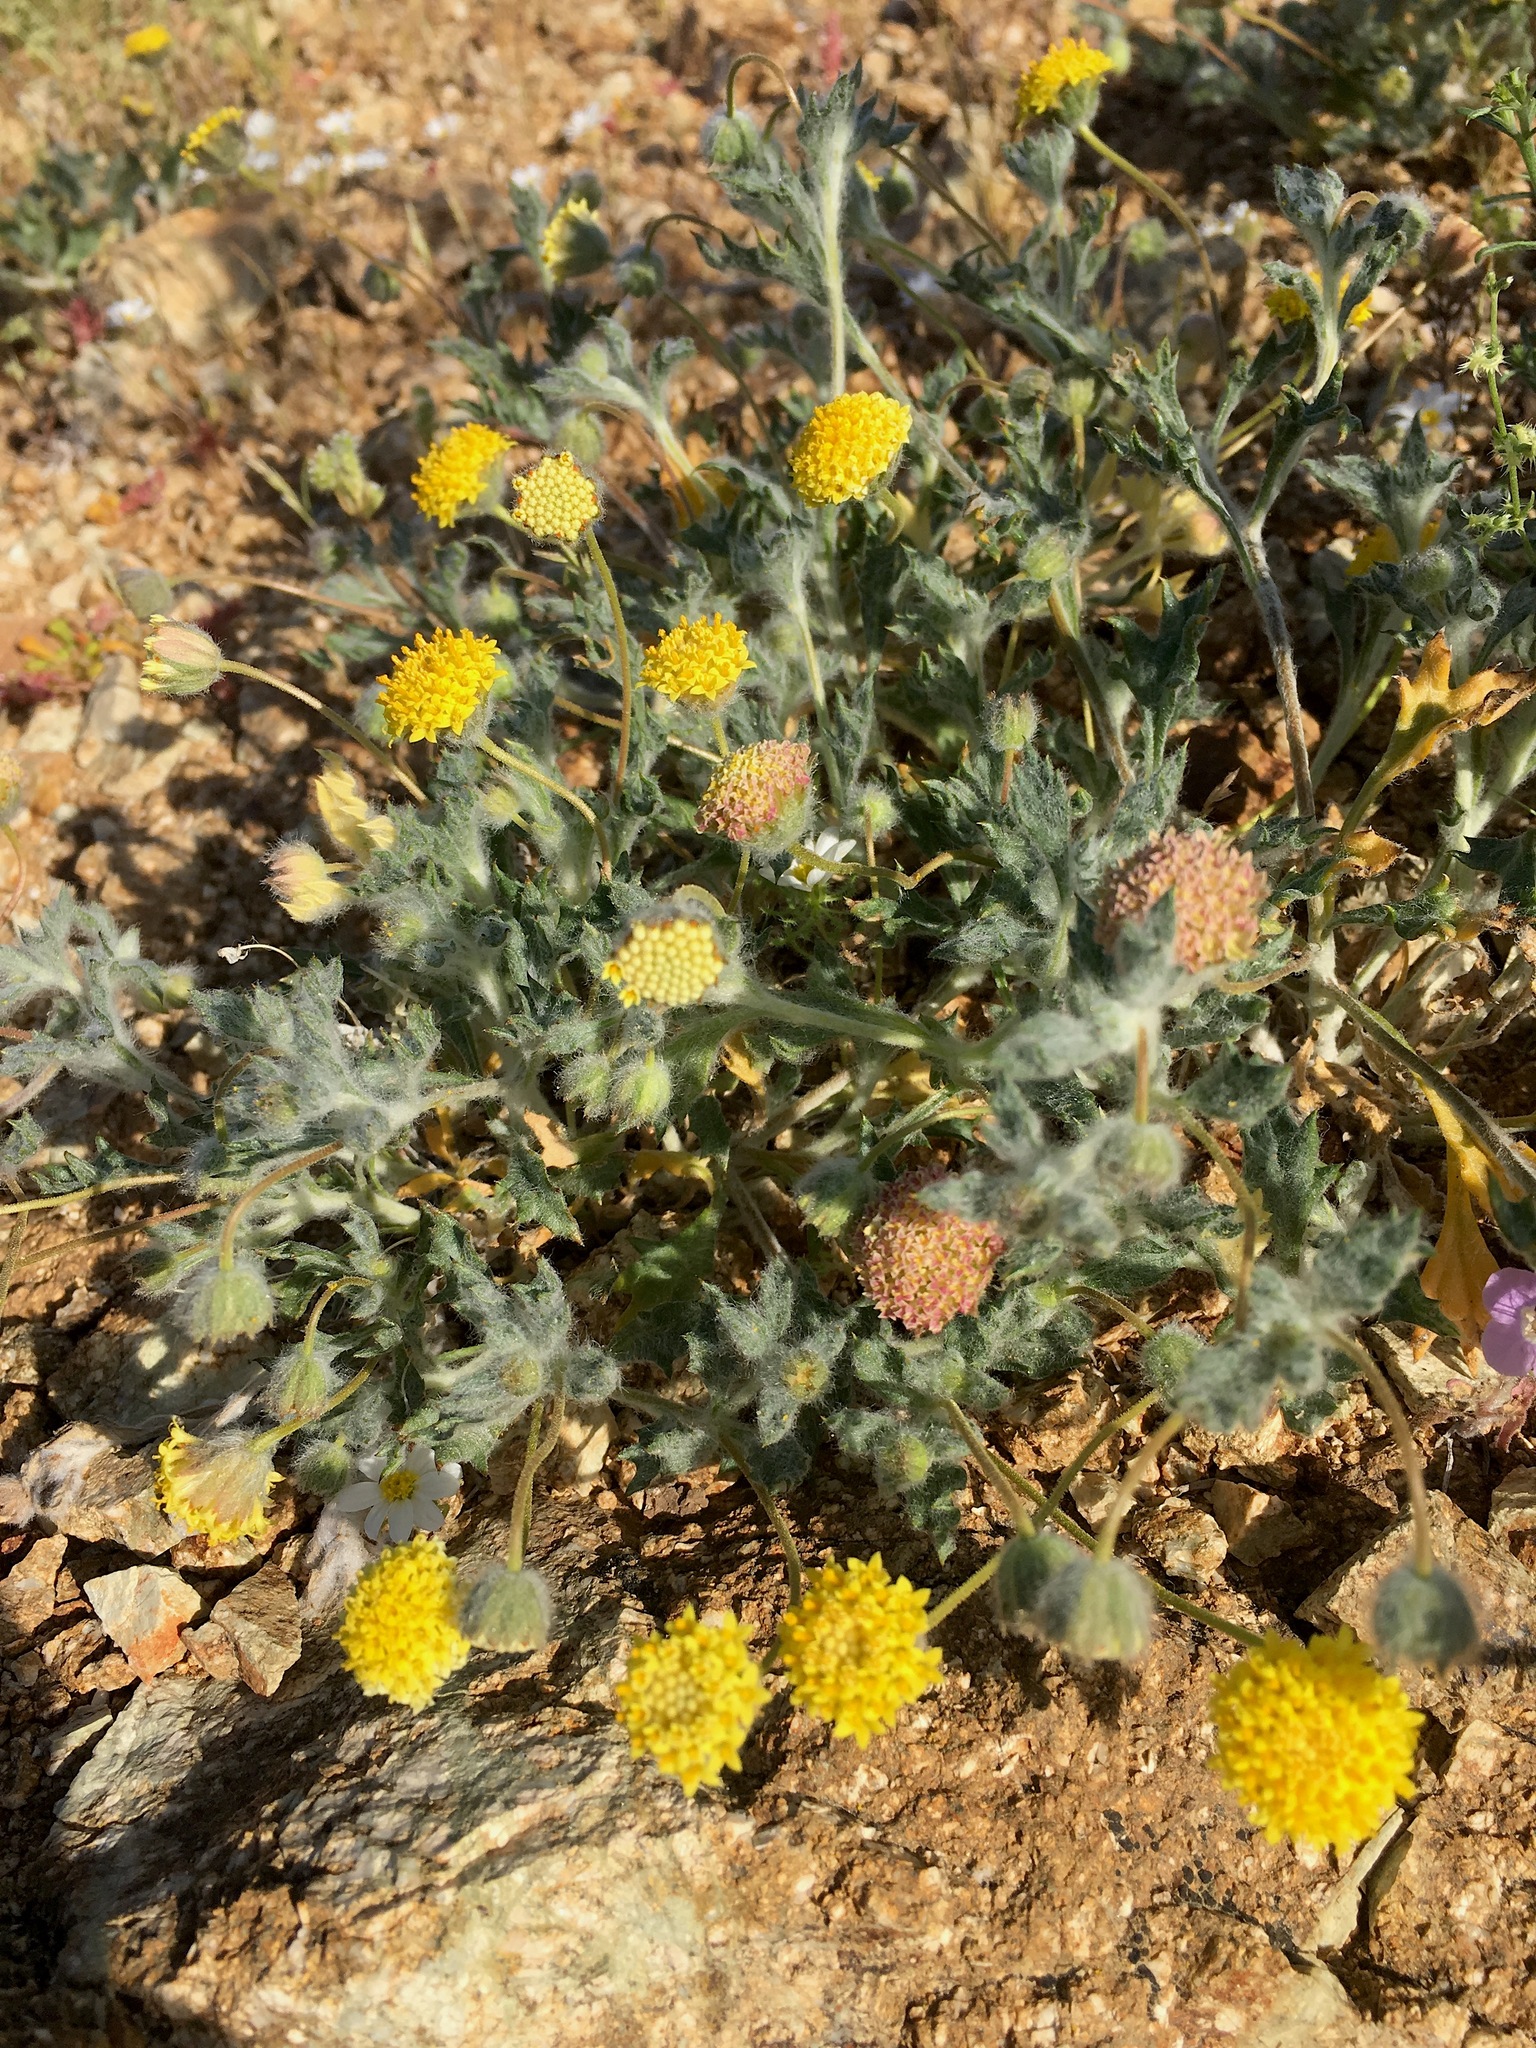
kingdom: Plantae
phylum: Tracheophyta
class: Magnoliopsida
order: Asterales
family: Asteraceae
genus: Trichoptilium
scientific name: Trichoptilium incisum
